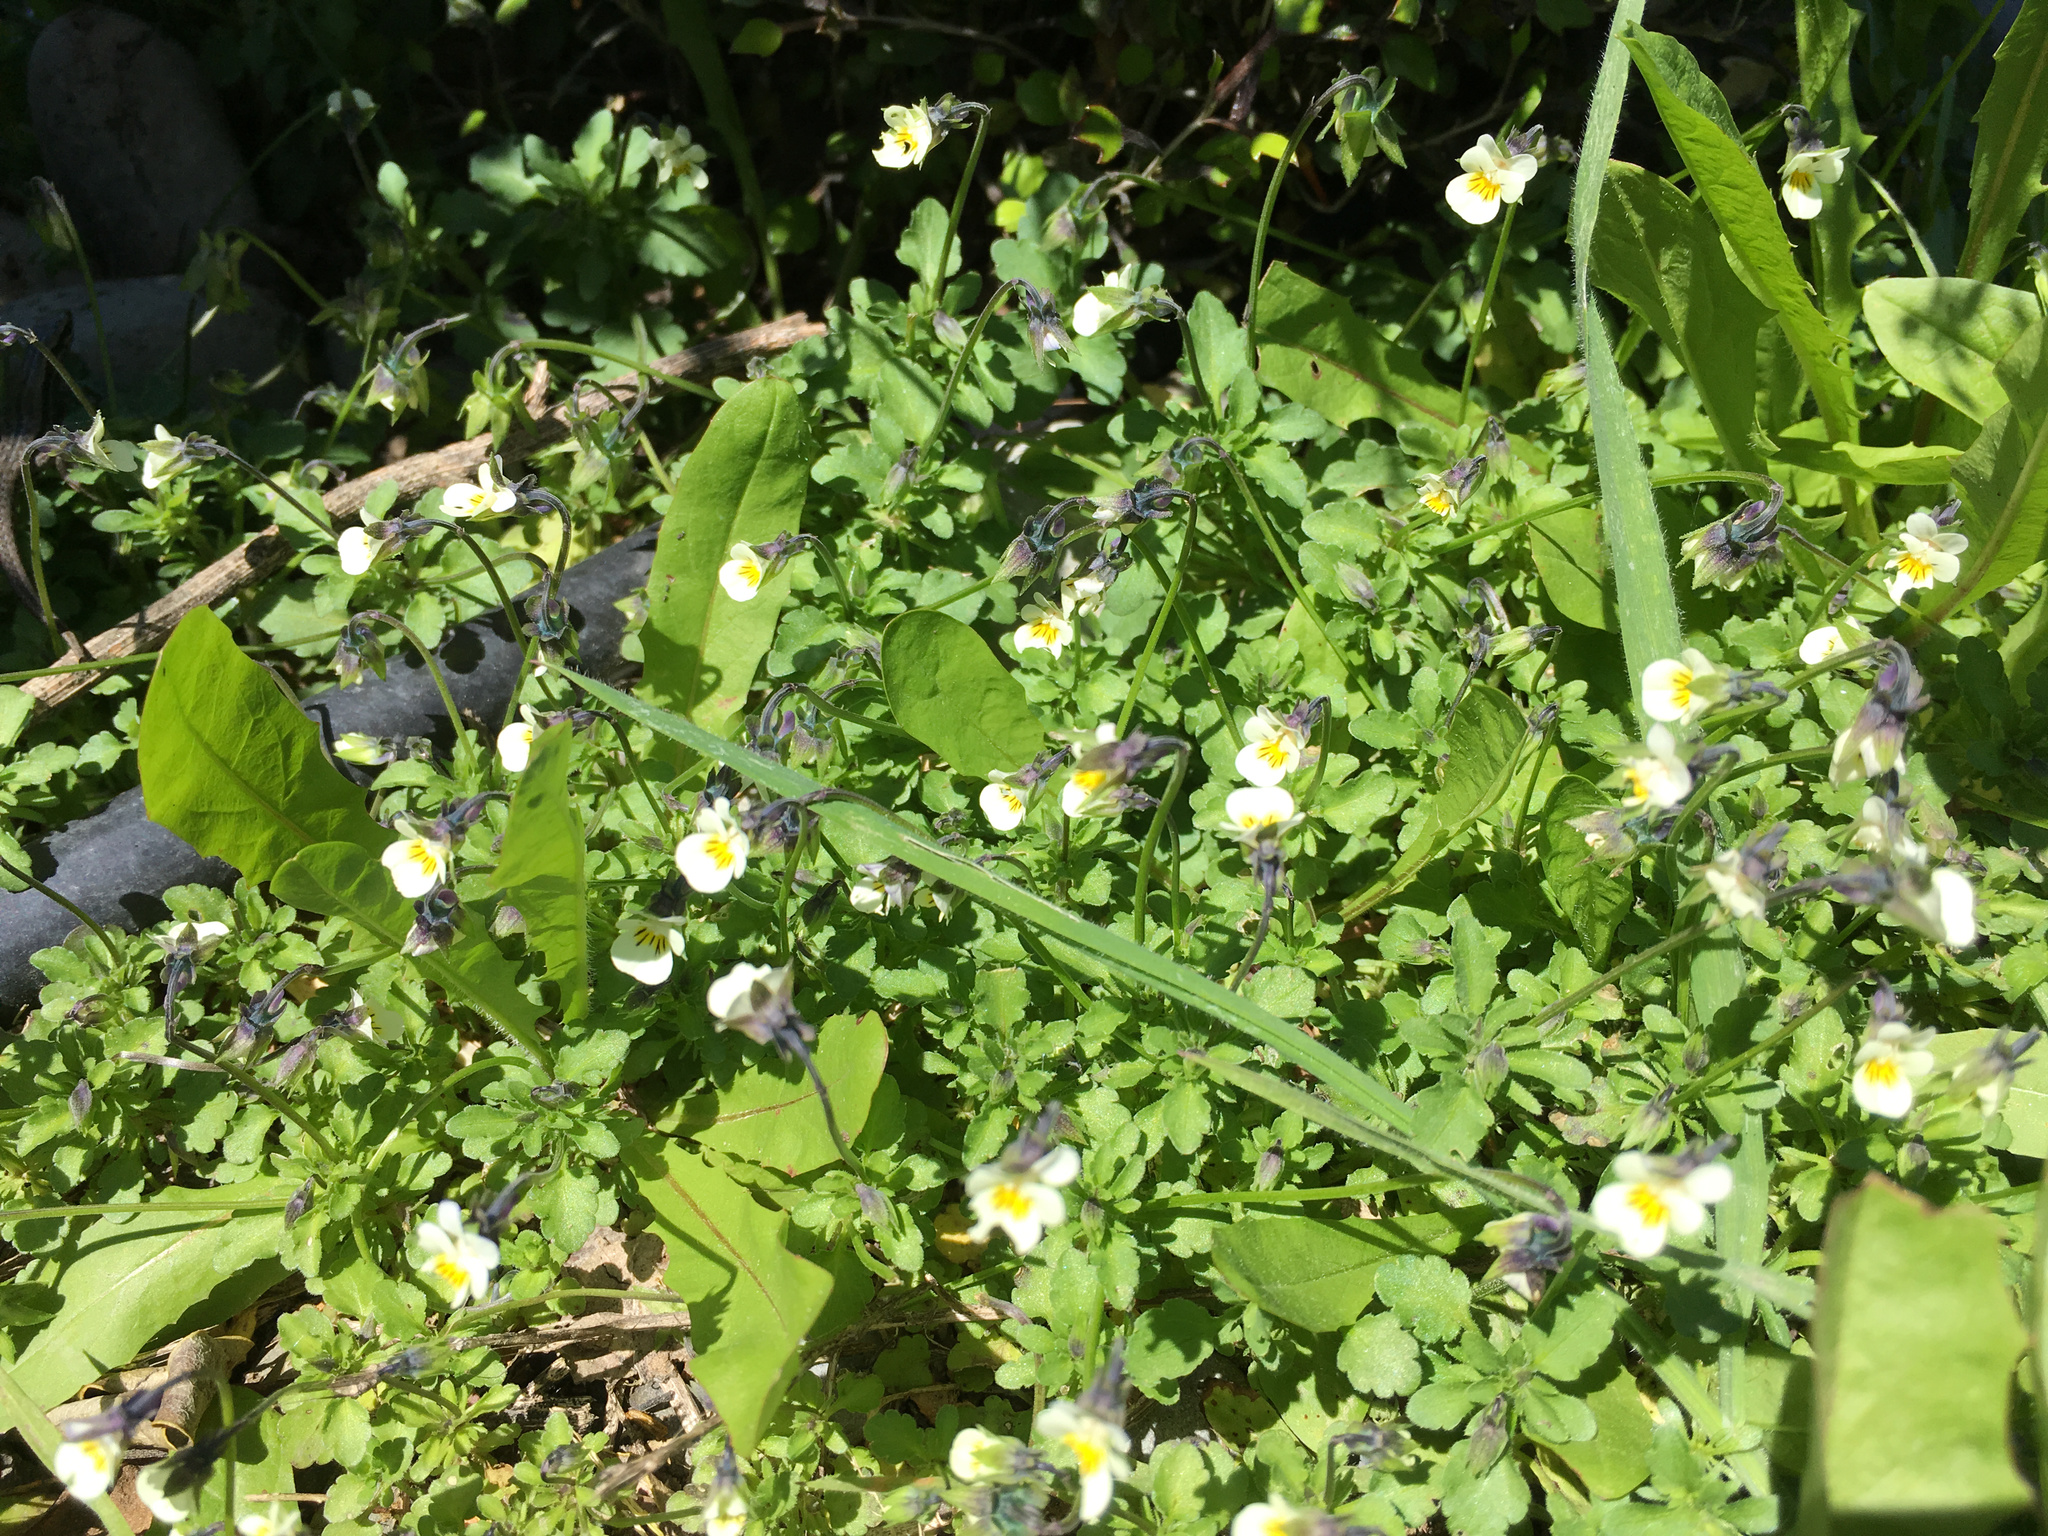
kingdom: Plantae
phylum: Tracheophyta
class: Magnoliopsida
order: Malpighiales
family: Violaceae
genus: Viola
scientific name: Viola arvensis
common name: Field pansy
